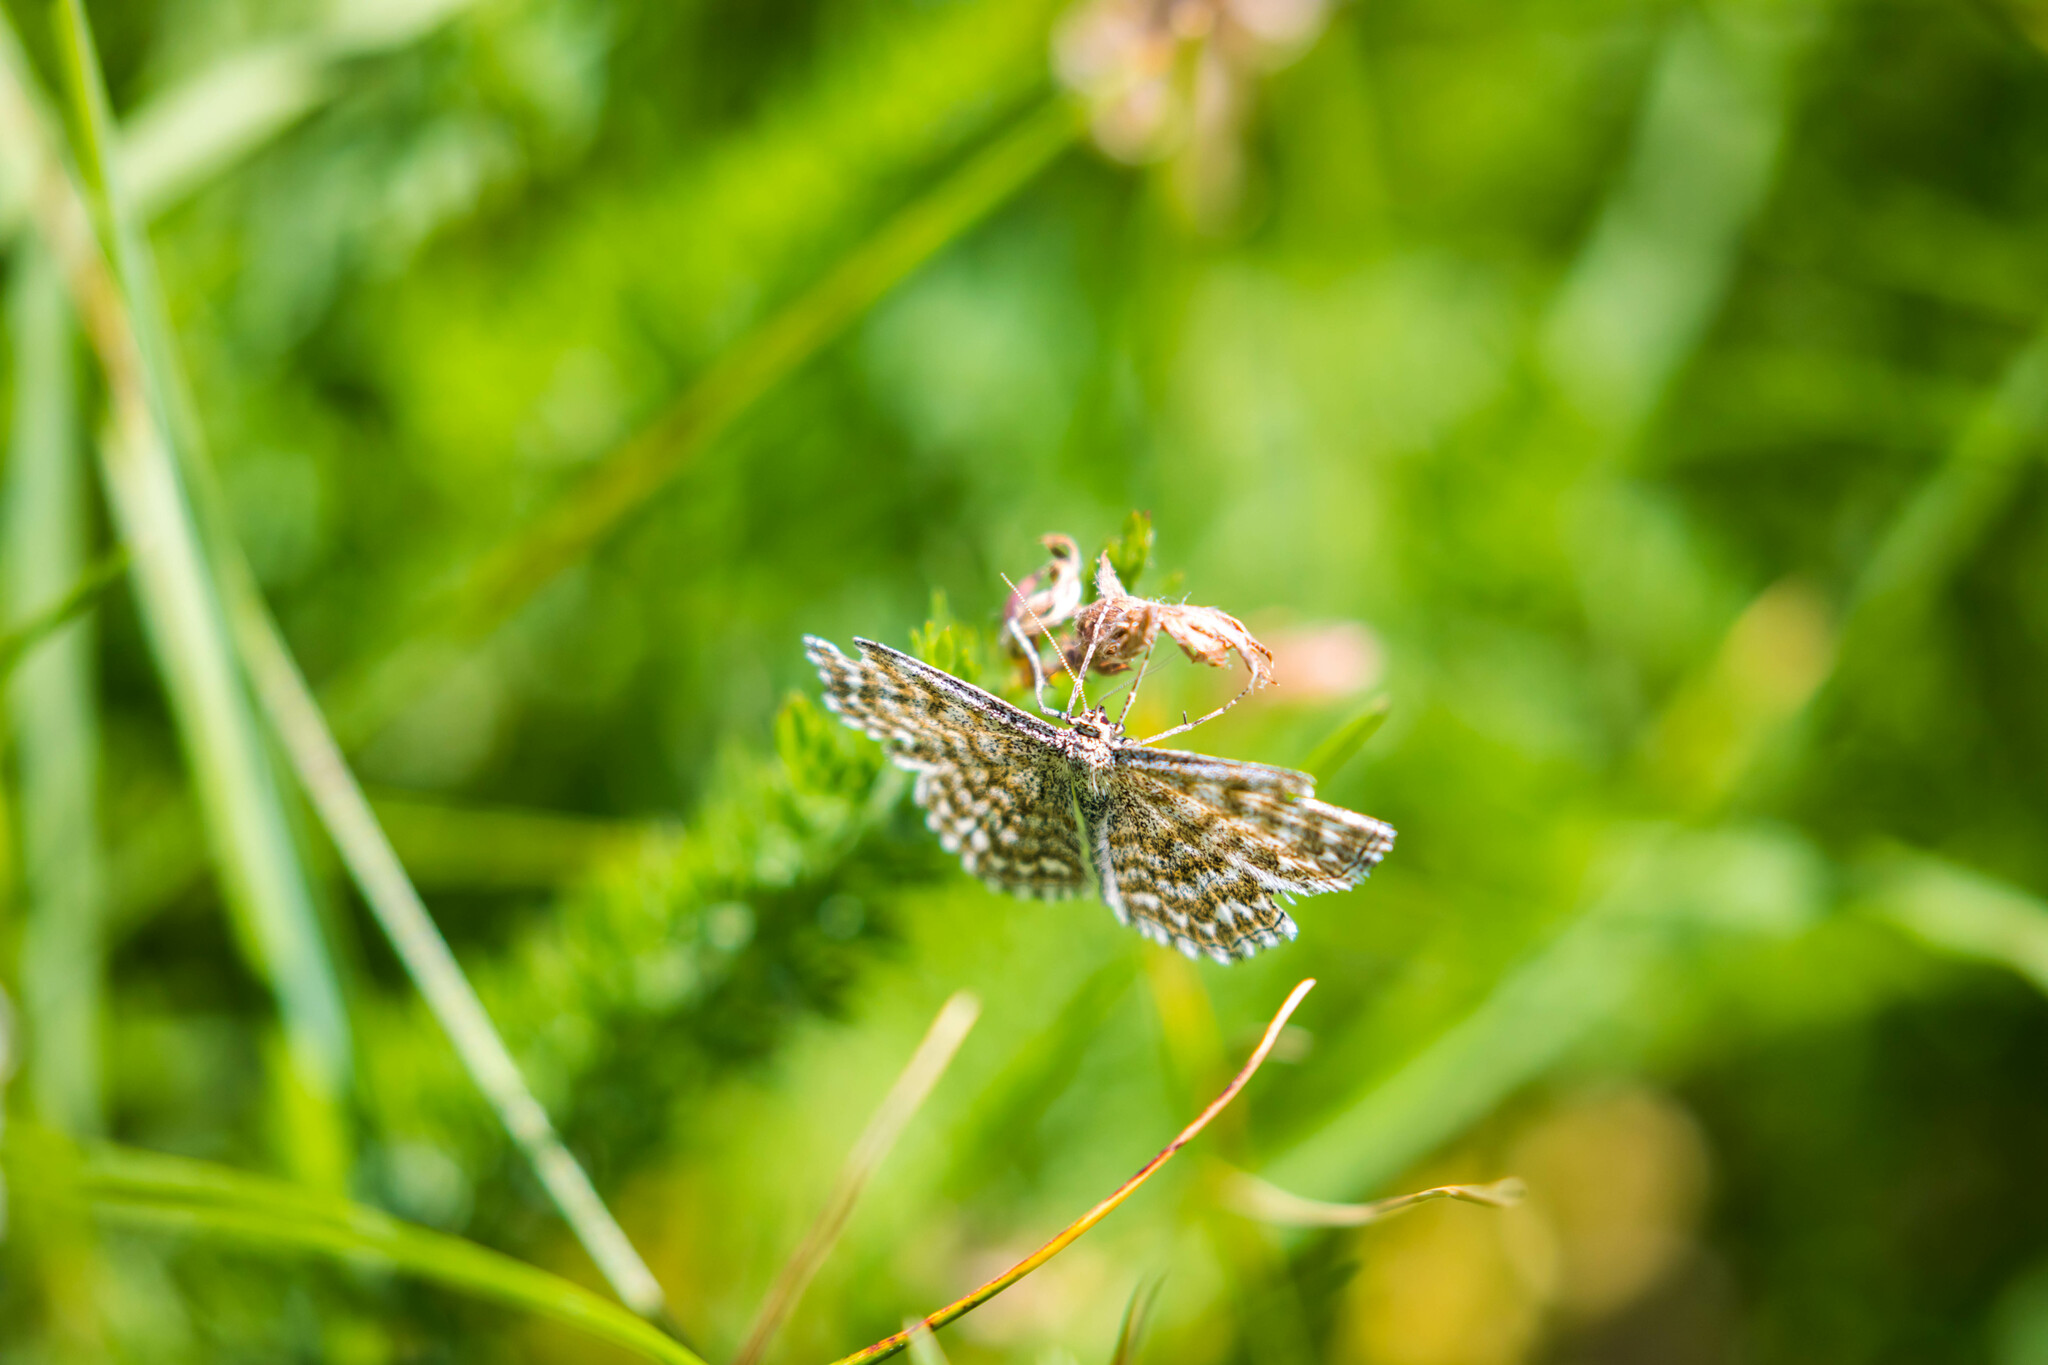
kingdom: Animalia
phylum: Arthropoda
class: Insecta
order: Lepidoptera
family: Geometridae
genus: Scopula
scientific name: Scopula immorata
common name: Lewes wave
